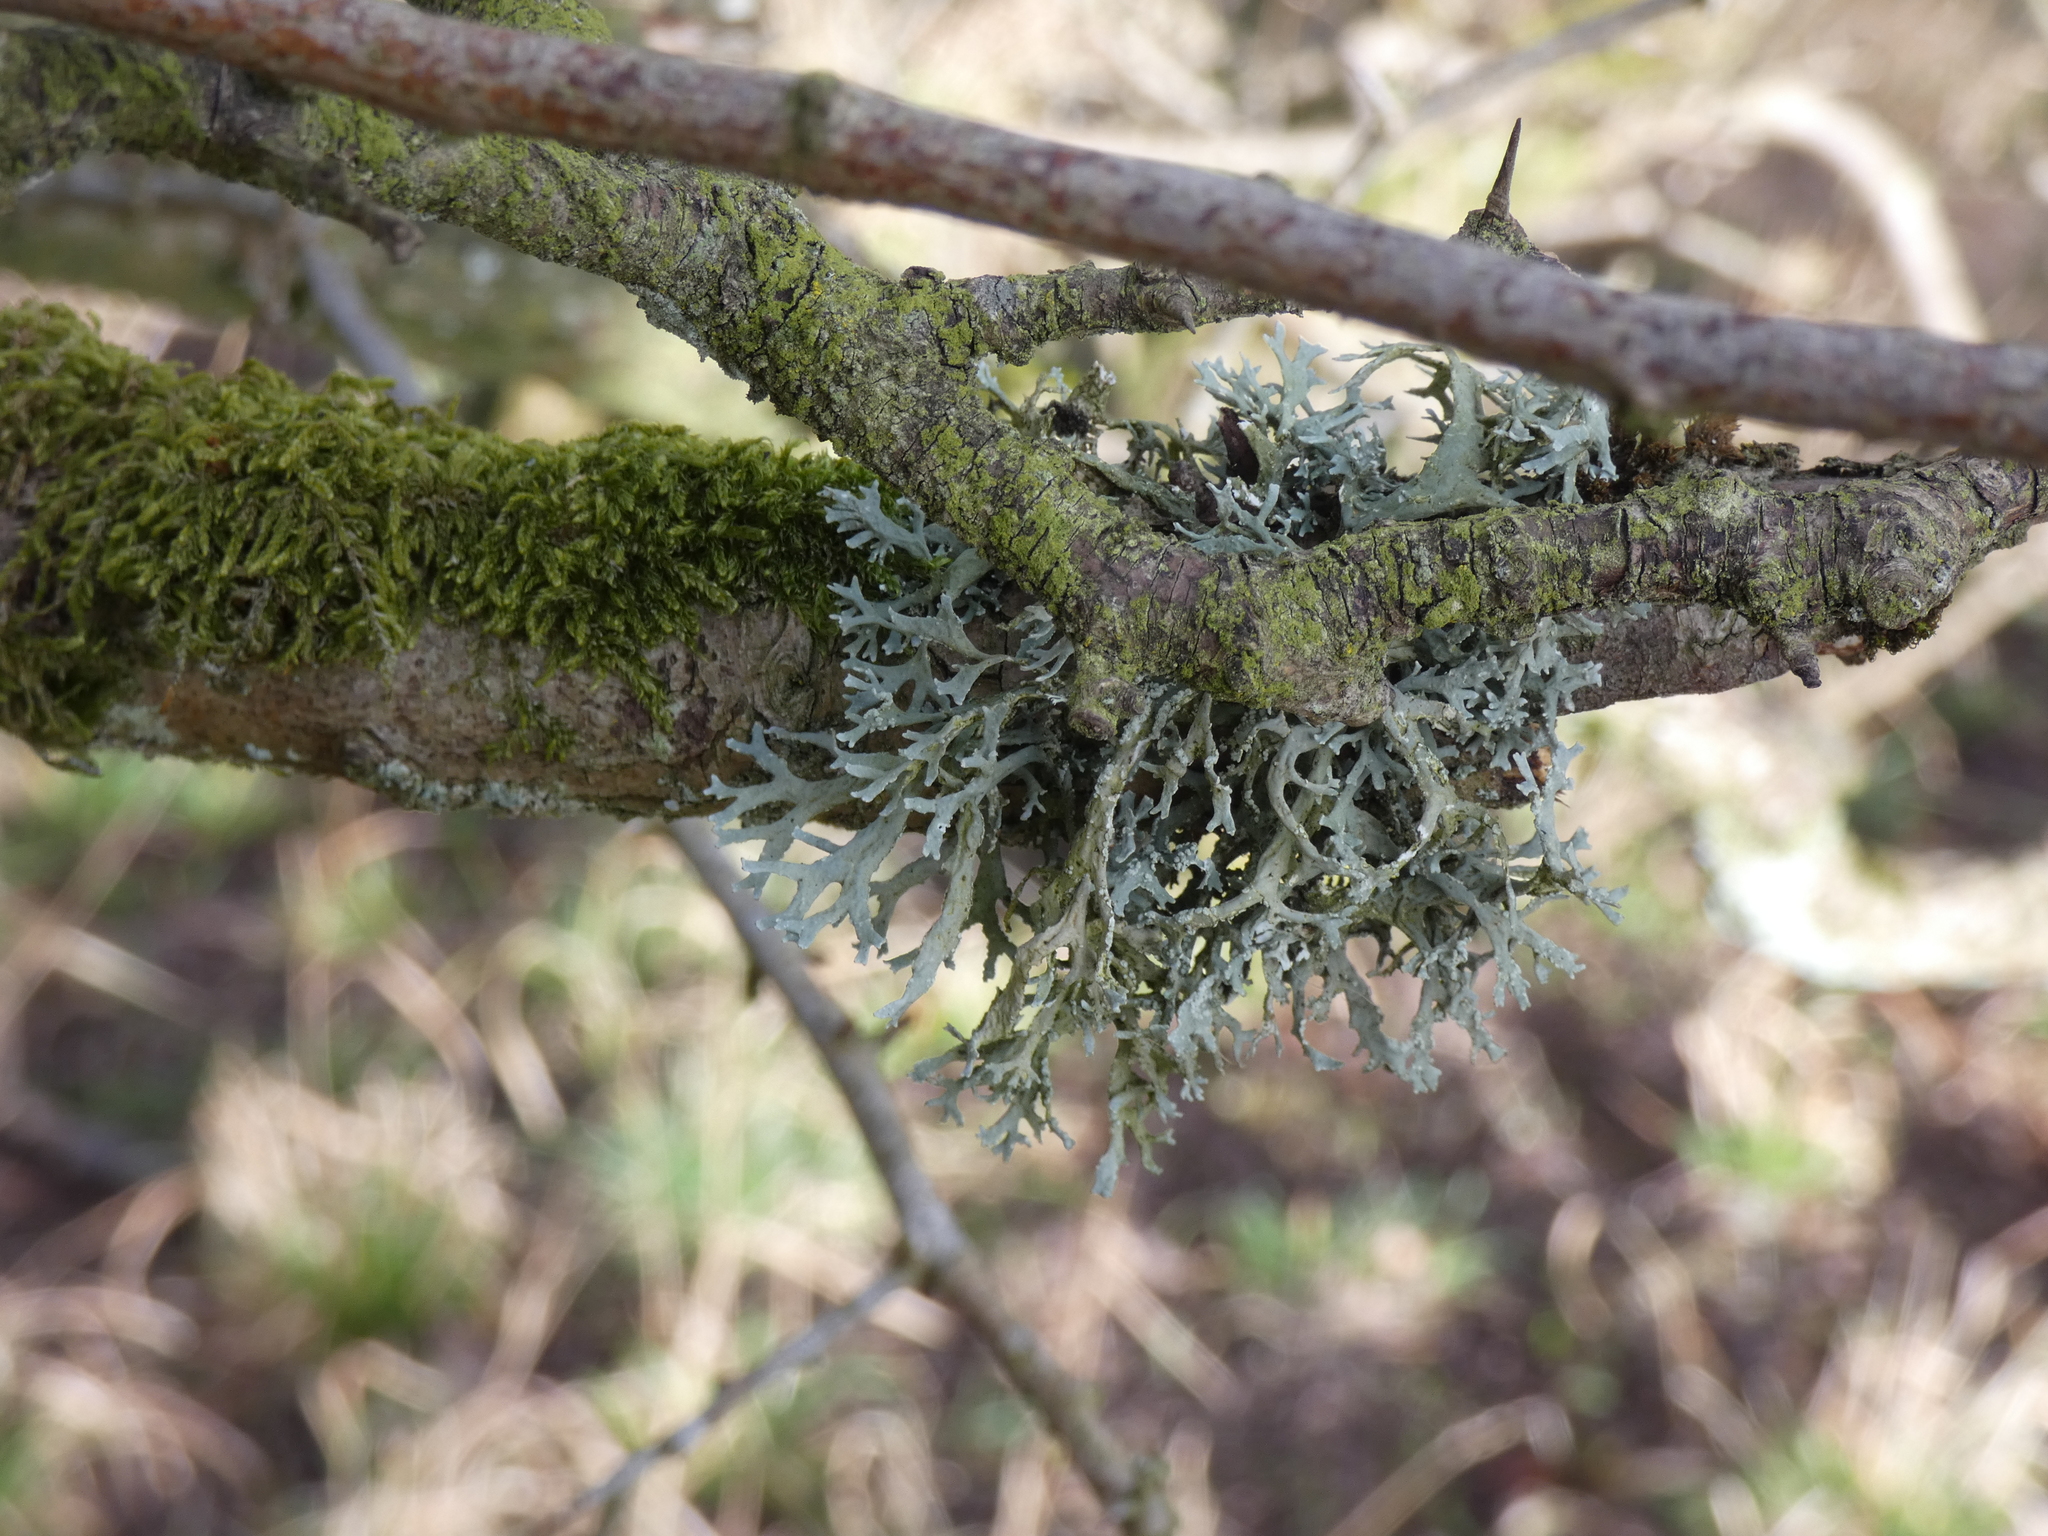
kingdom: Fungi
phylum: Ascomycota
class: Lecanoromycetes
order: Lecanorales
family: Parmeliaceae
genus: Evernia
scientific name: Evernia prunastri
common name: Oak moss
